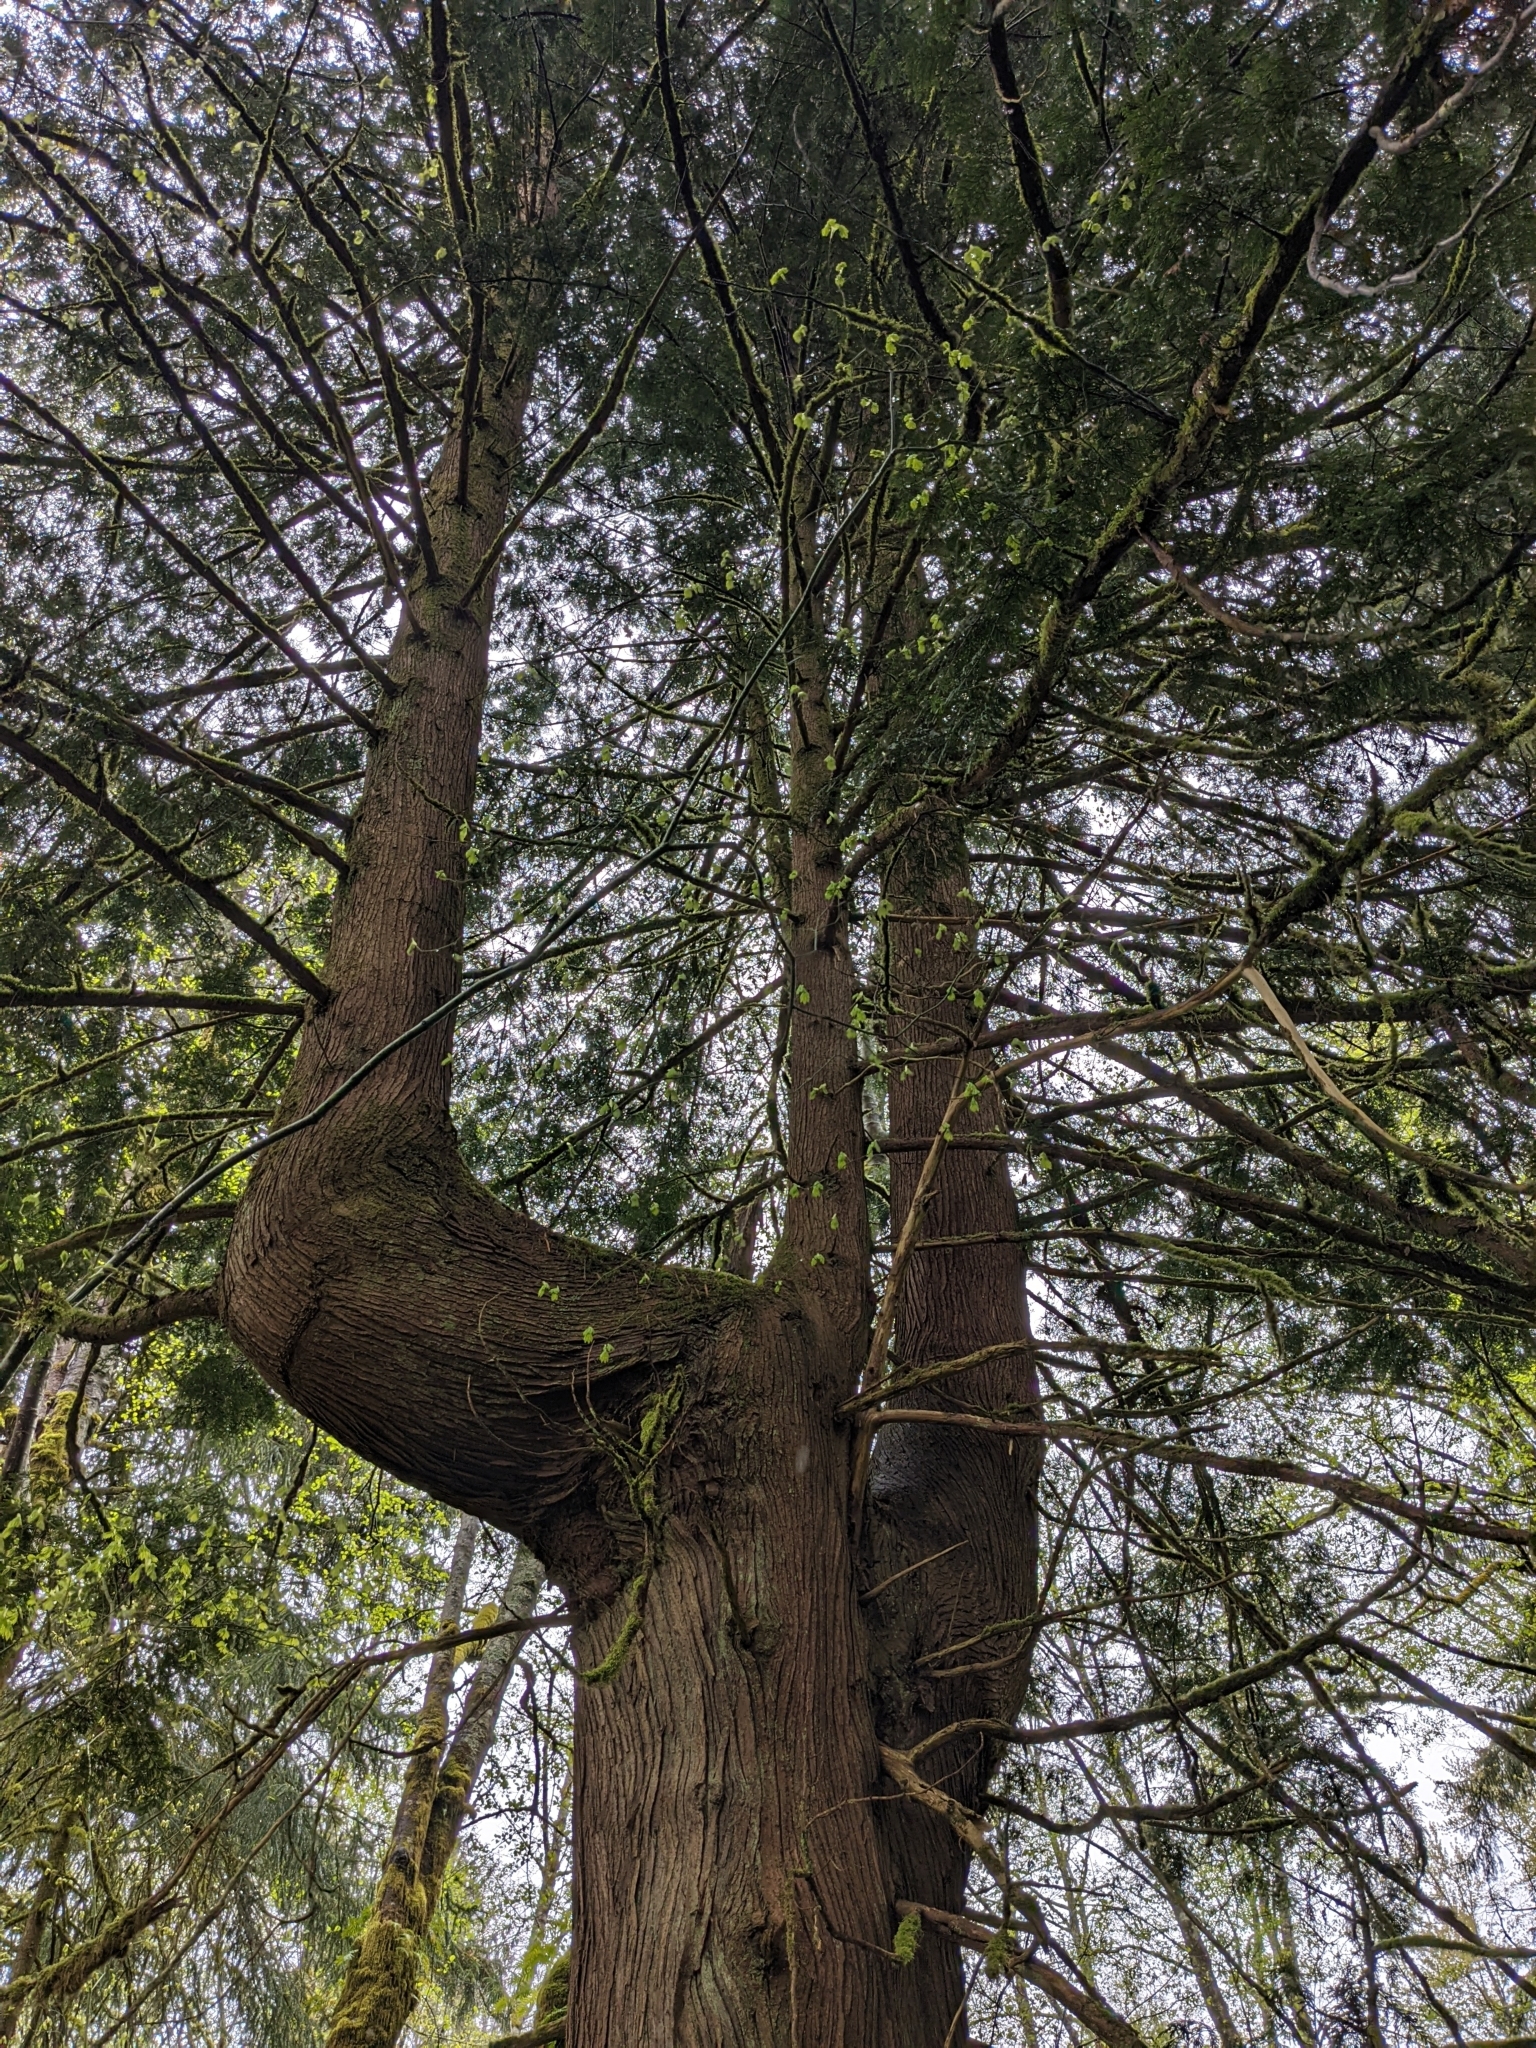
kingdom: Plantae
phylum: Tracheophyta
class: Pinopsida
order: Pinales
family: Cupressaceae
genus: Thuja
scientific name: Thuja plicata
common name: Western red-cedar
